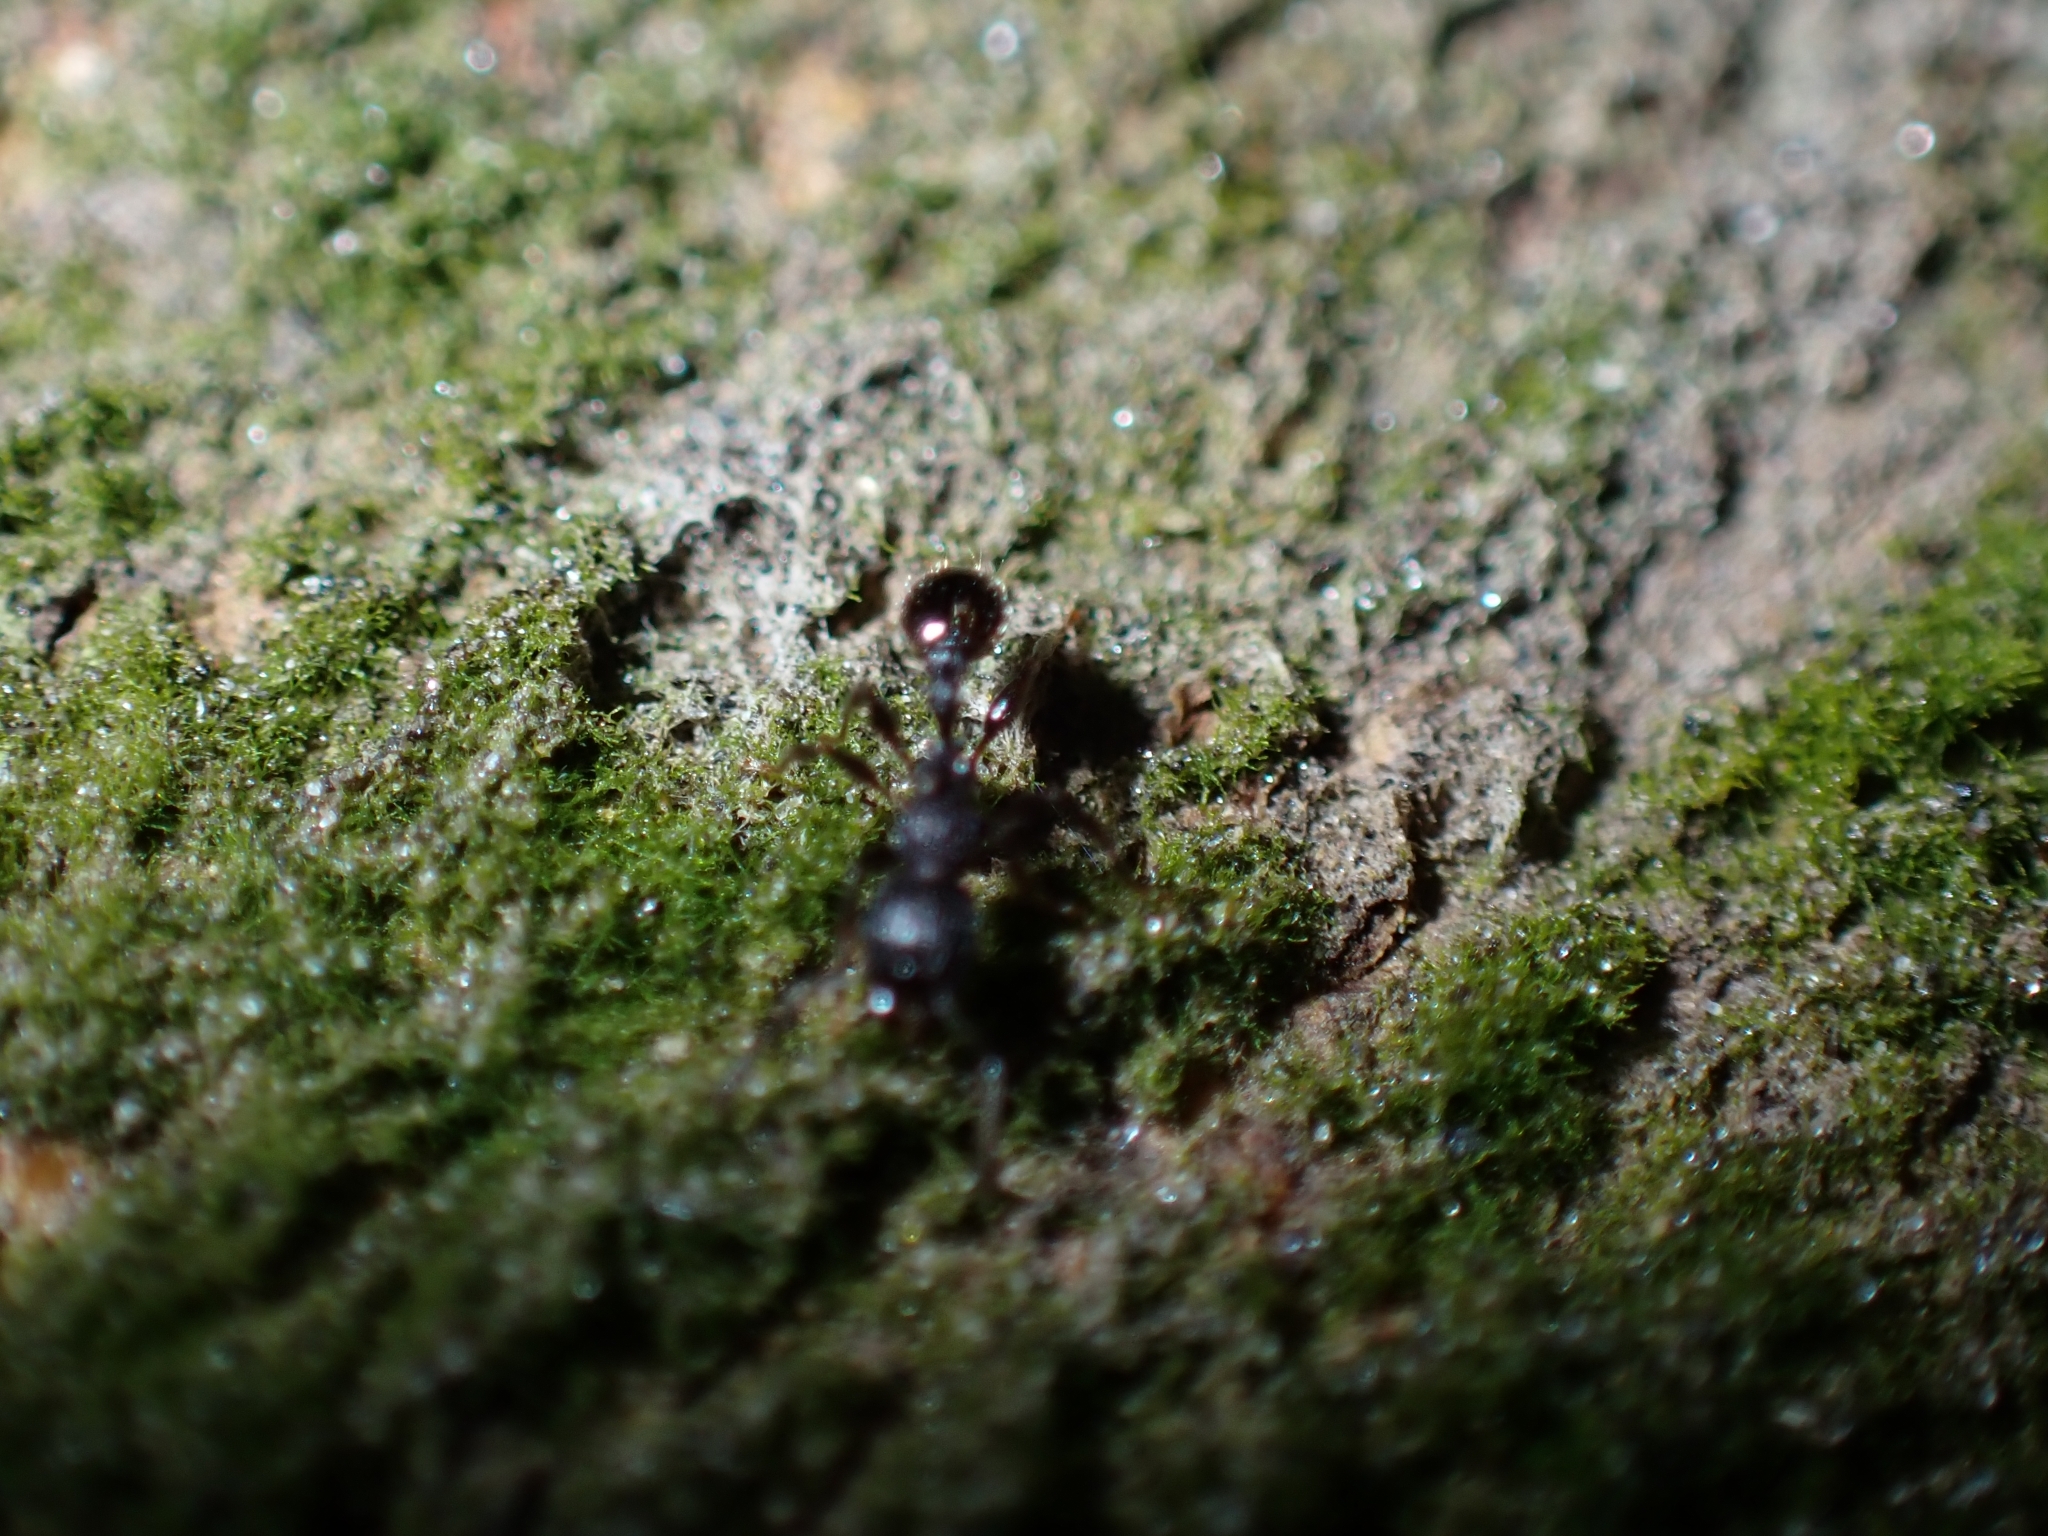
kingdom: Animalia
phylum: Arthropoda
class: Insecta
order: Hymenoptera
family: Formicidae
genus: Tetramorium
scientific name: Tetramorium pacificum
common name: Ant
